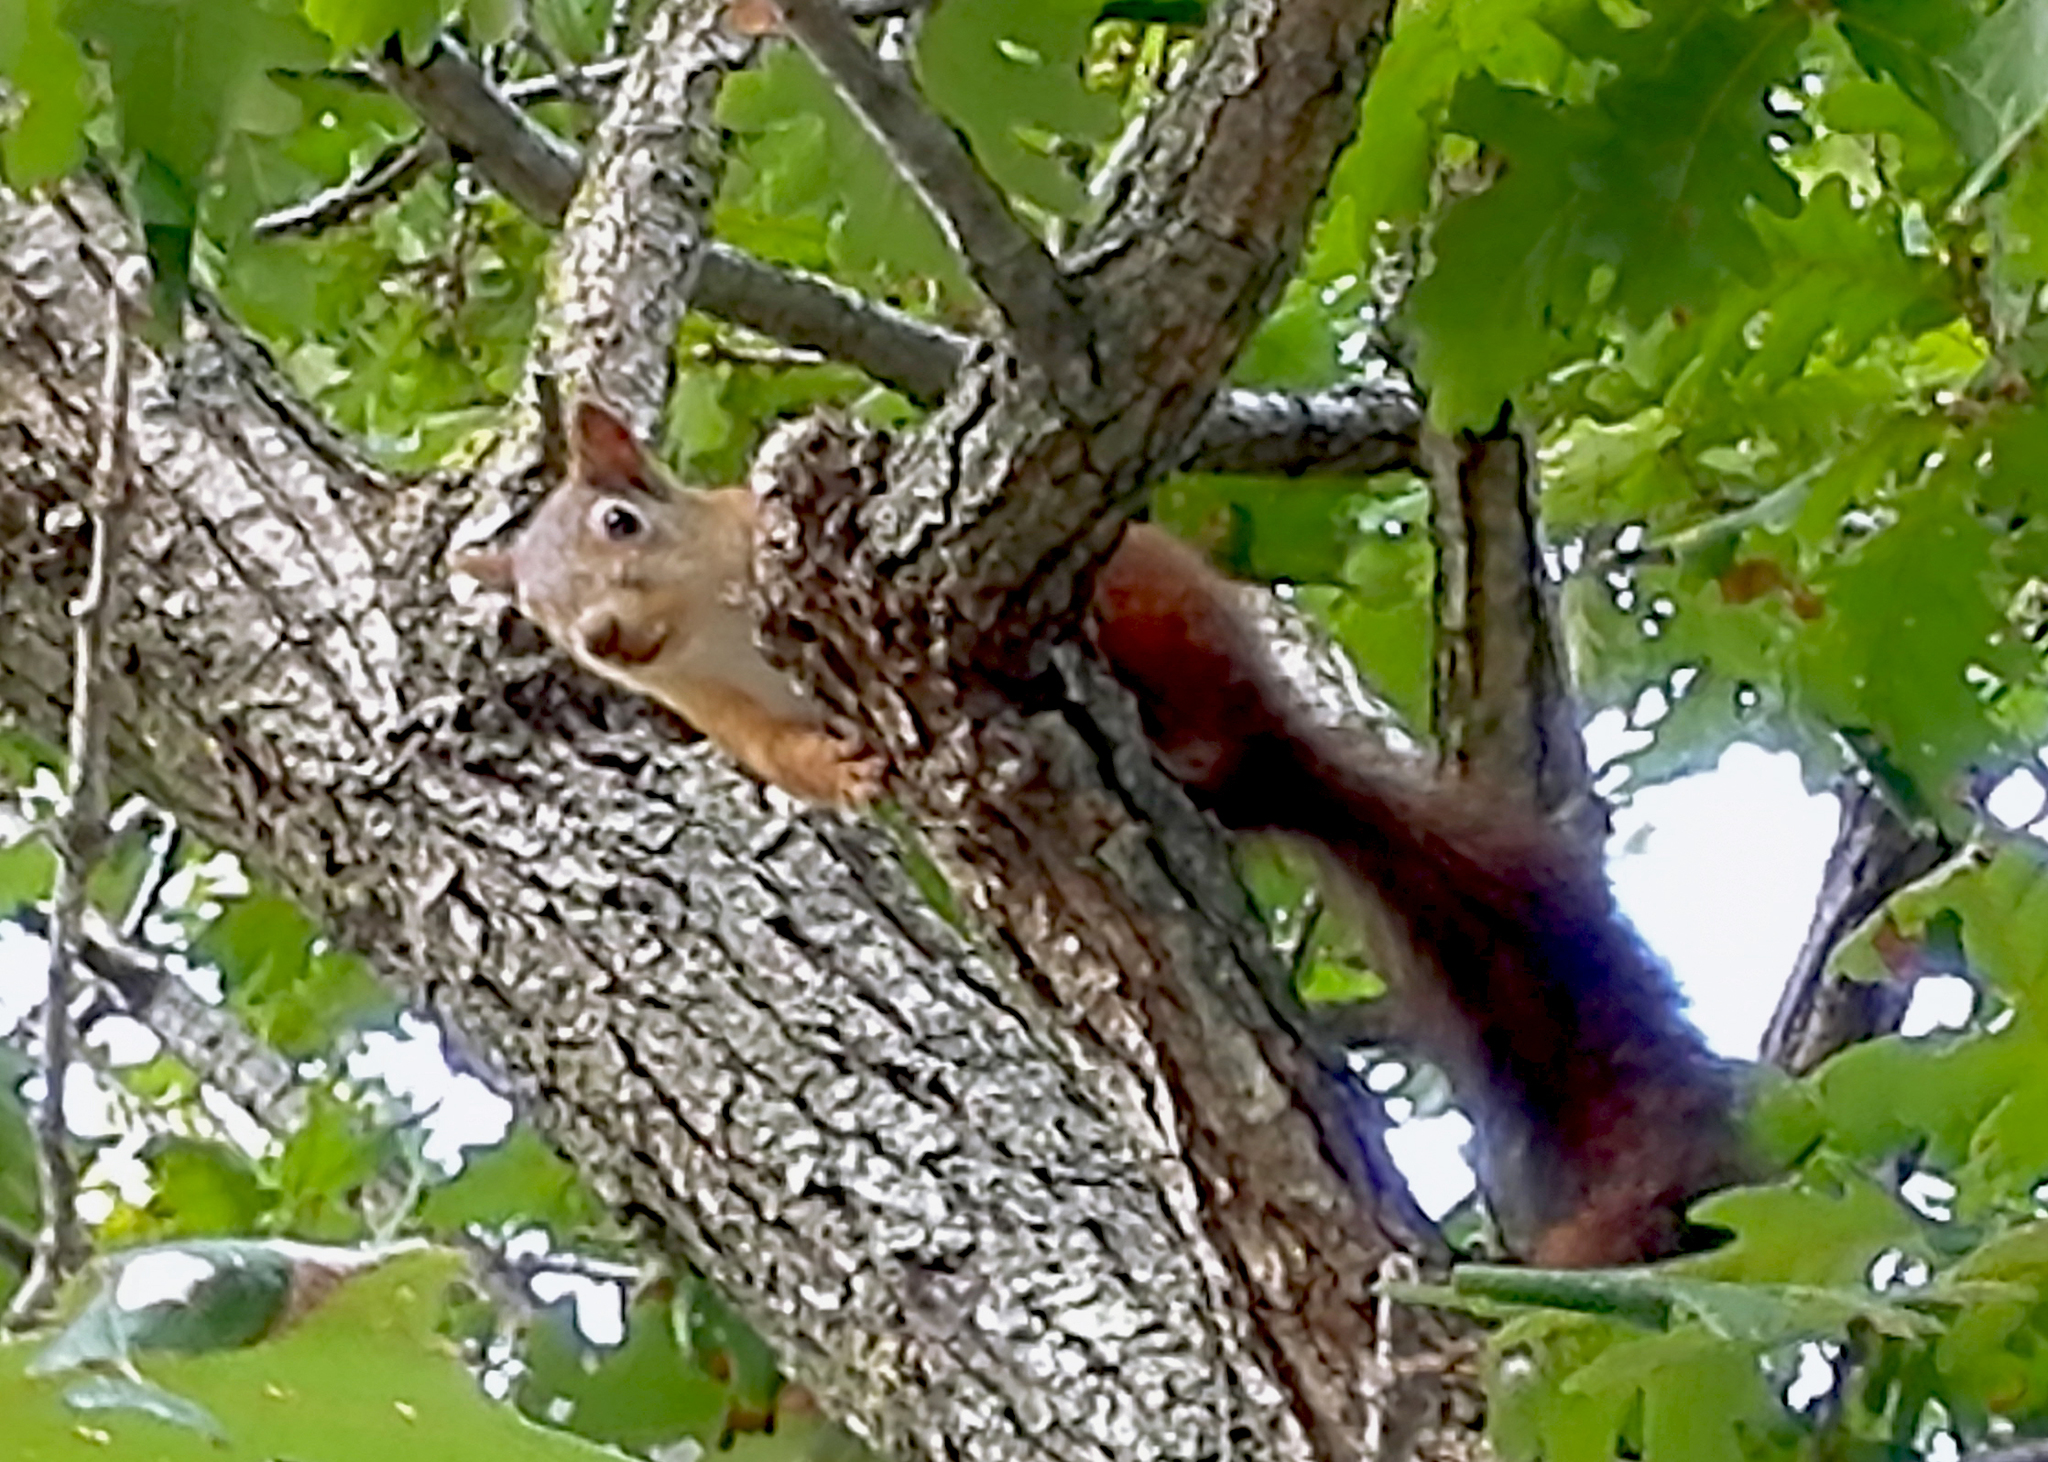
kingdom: Animalia
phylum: Chordata
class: Mammalia
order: Rodentia
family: Sciuridae
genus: Sciurus
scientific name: Sciurus vulgaris
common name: Eurasian red squirrel
